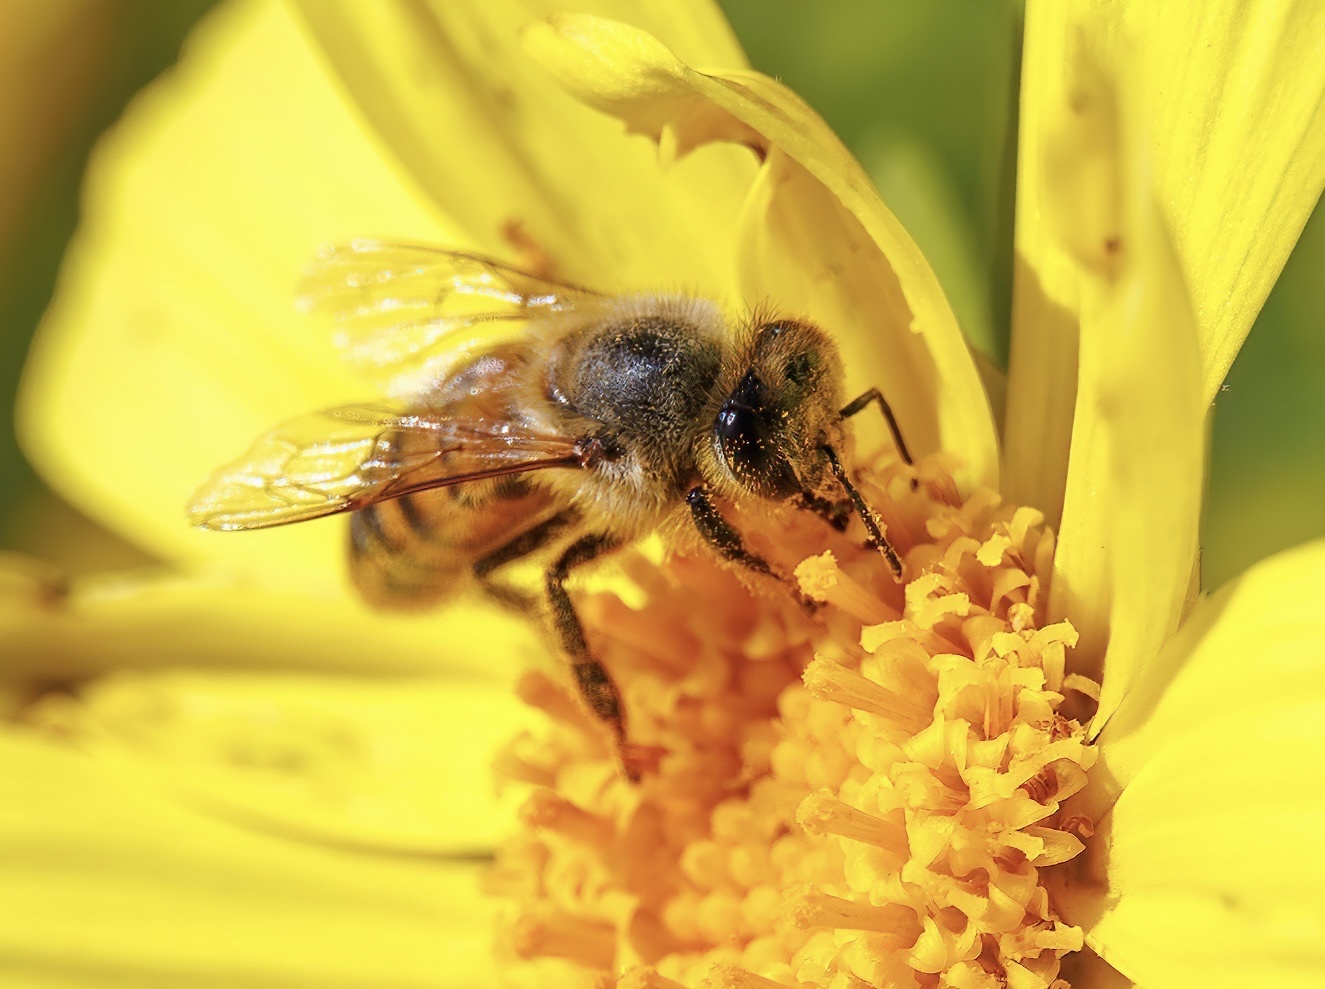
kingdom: Animalia
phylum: Arthropoda
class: Insecta
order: Hymenoptera
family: Apidae
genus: Apis
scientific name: Apis mellifera
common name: Honey bee
